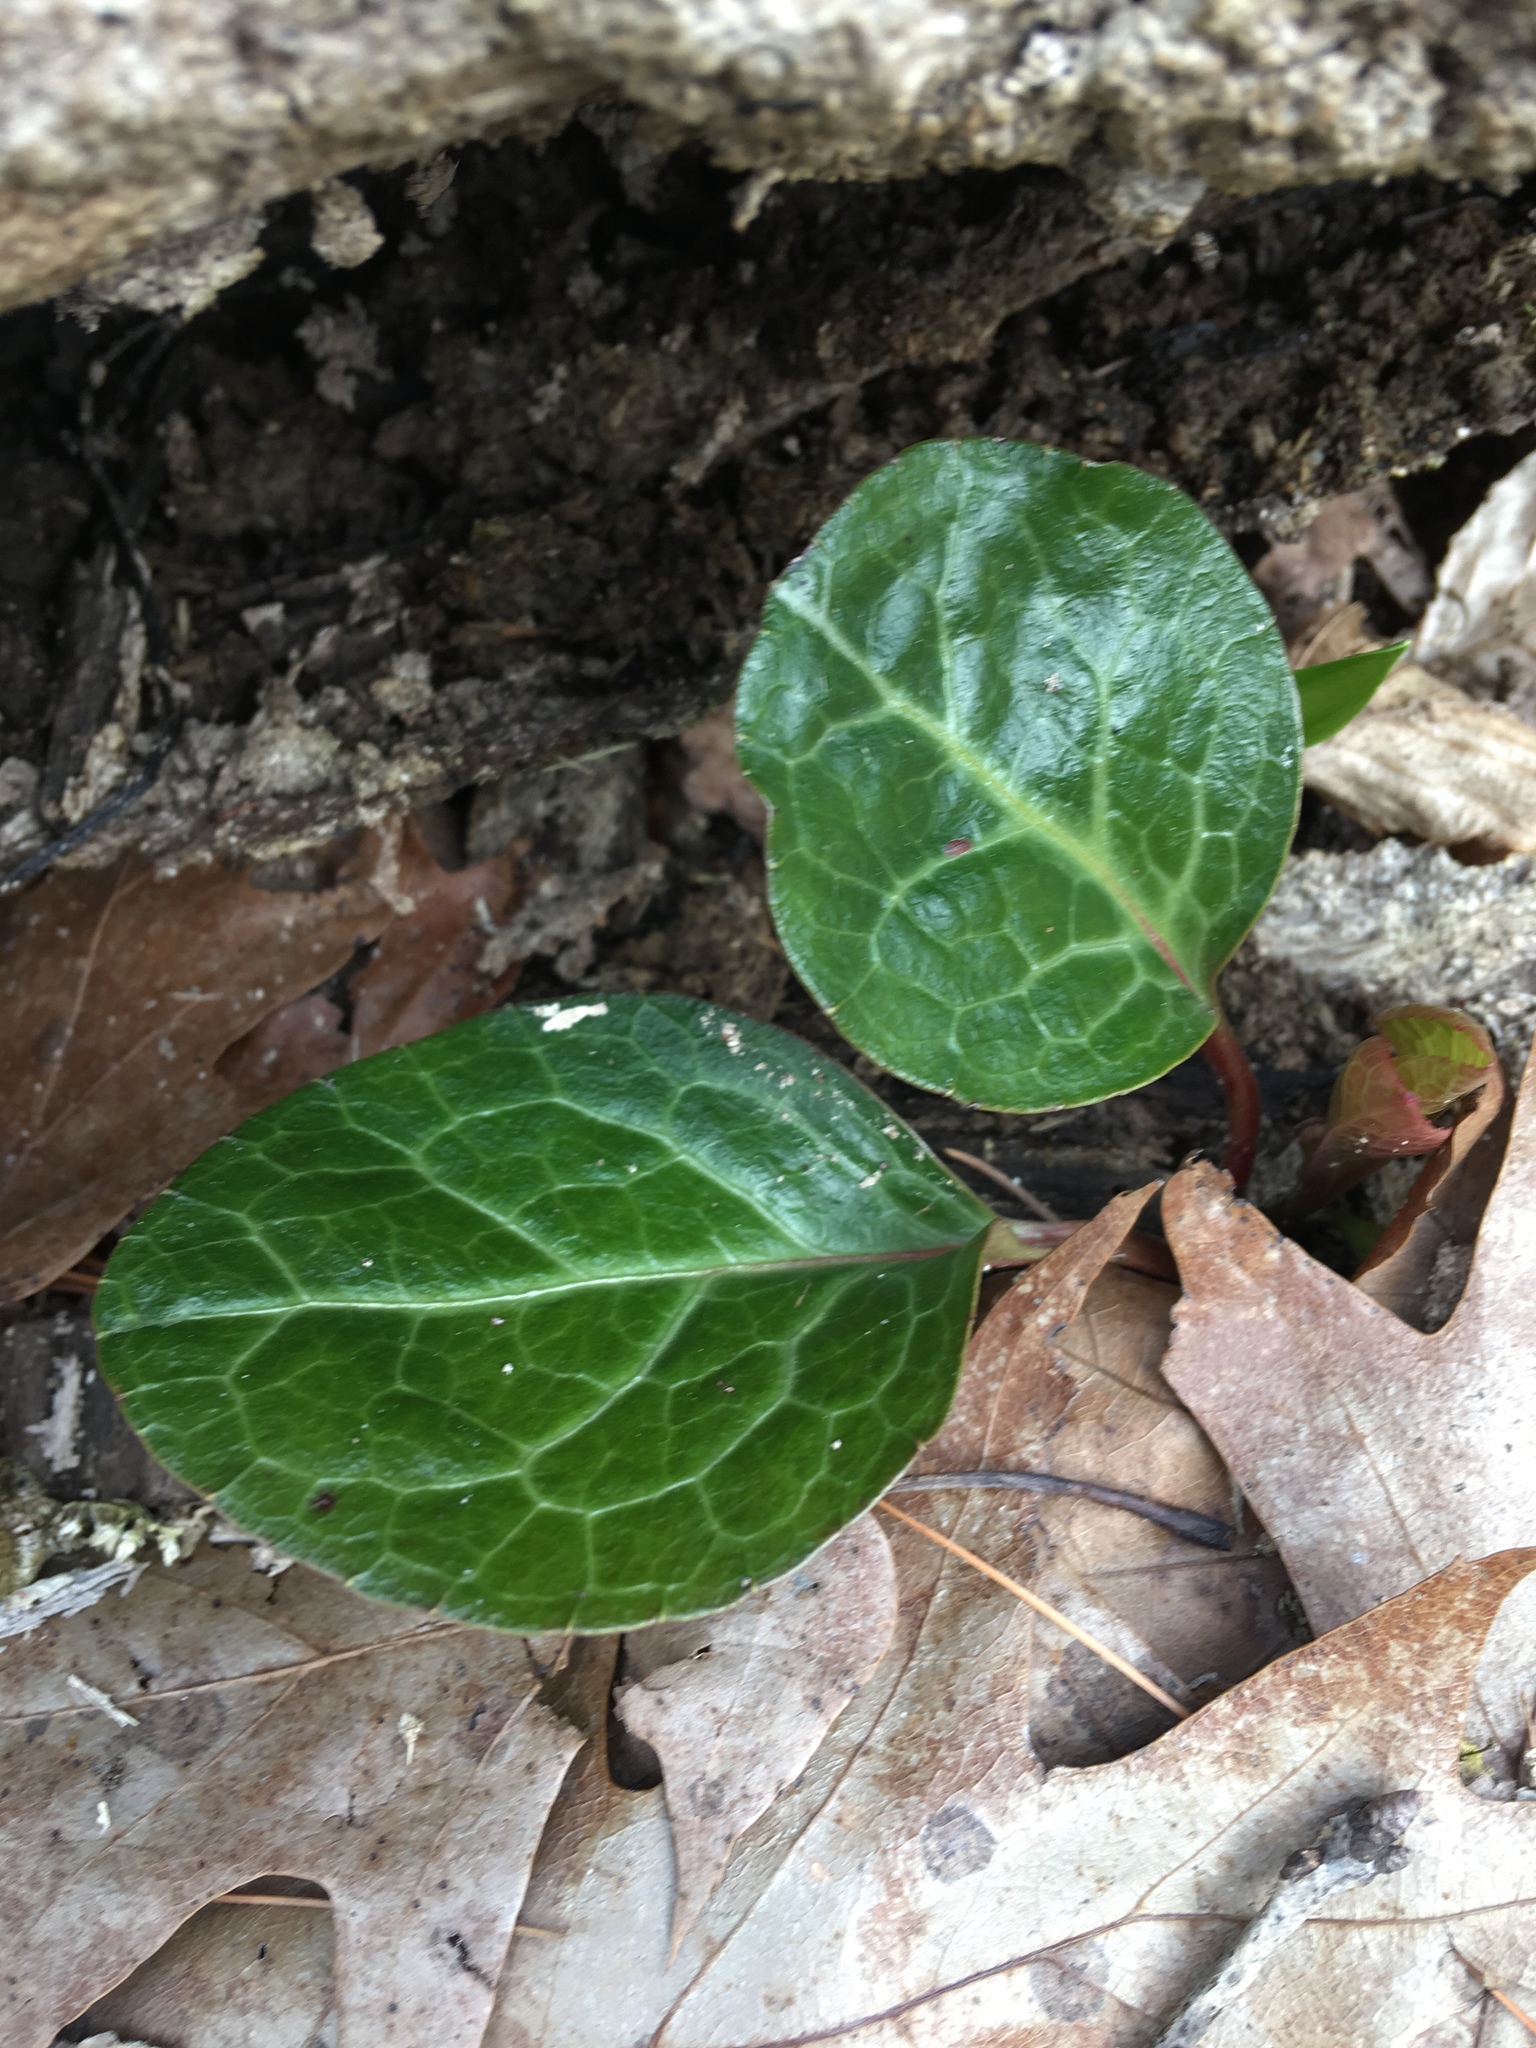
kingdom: Plantae
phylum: Tracheophyta
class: Magnoliopsida
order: Ericales
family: Ericaceae
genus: Pyrola
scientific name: Pyrola americana
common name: American wintergreen
